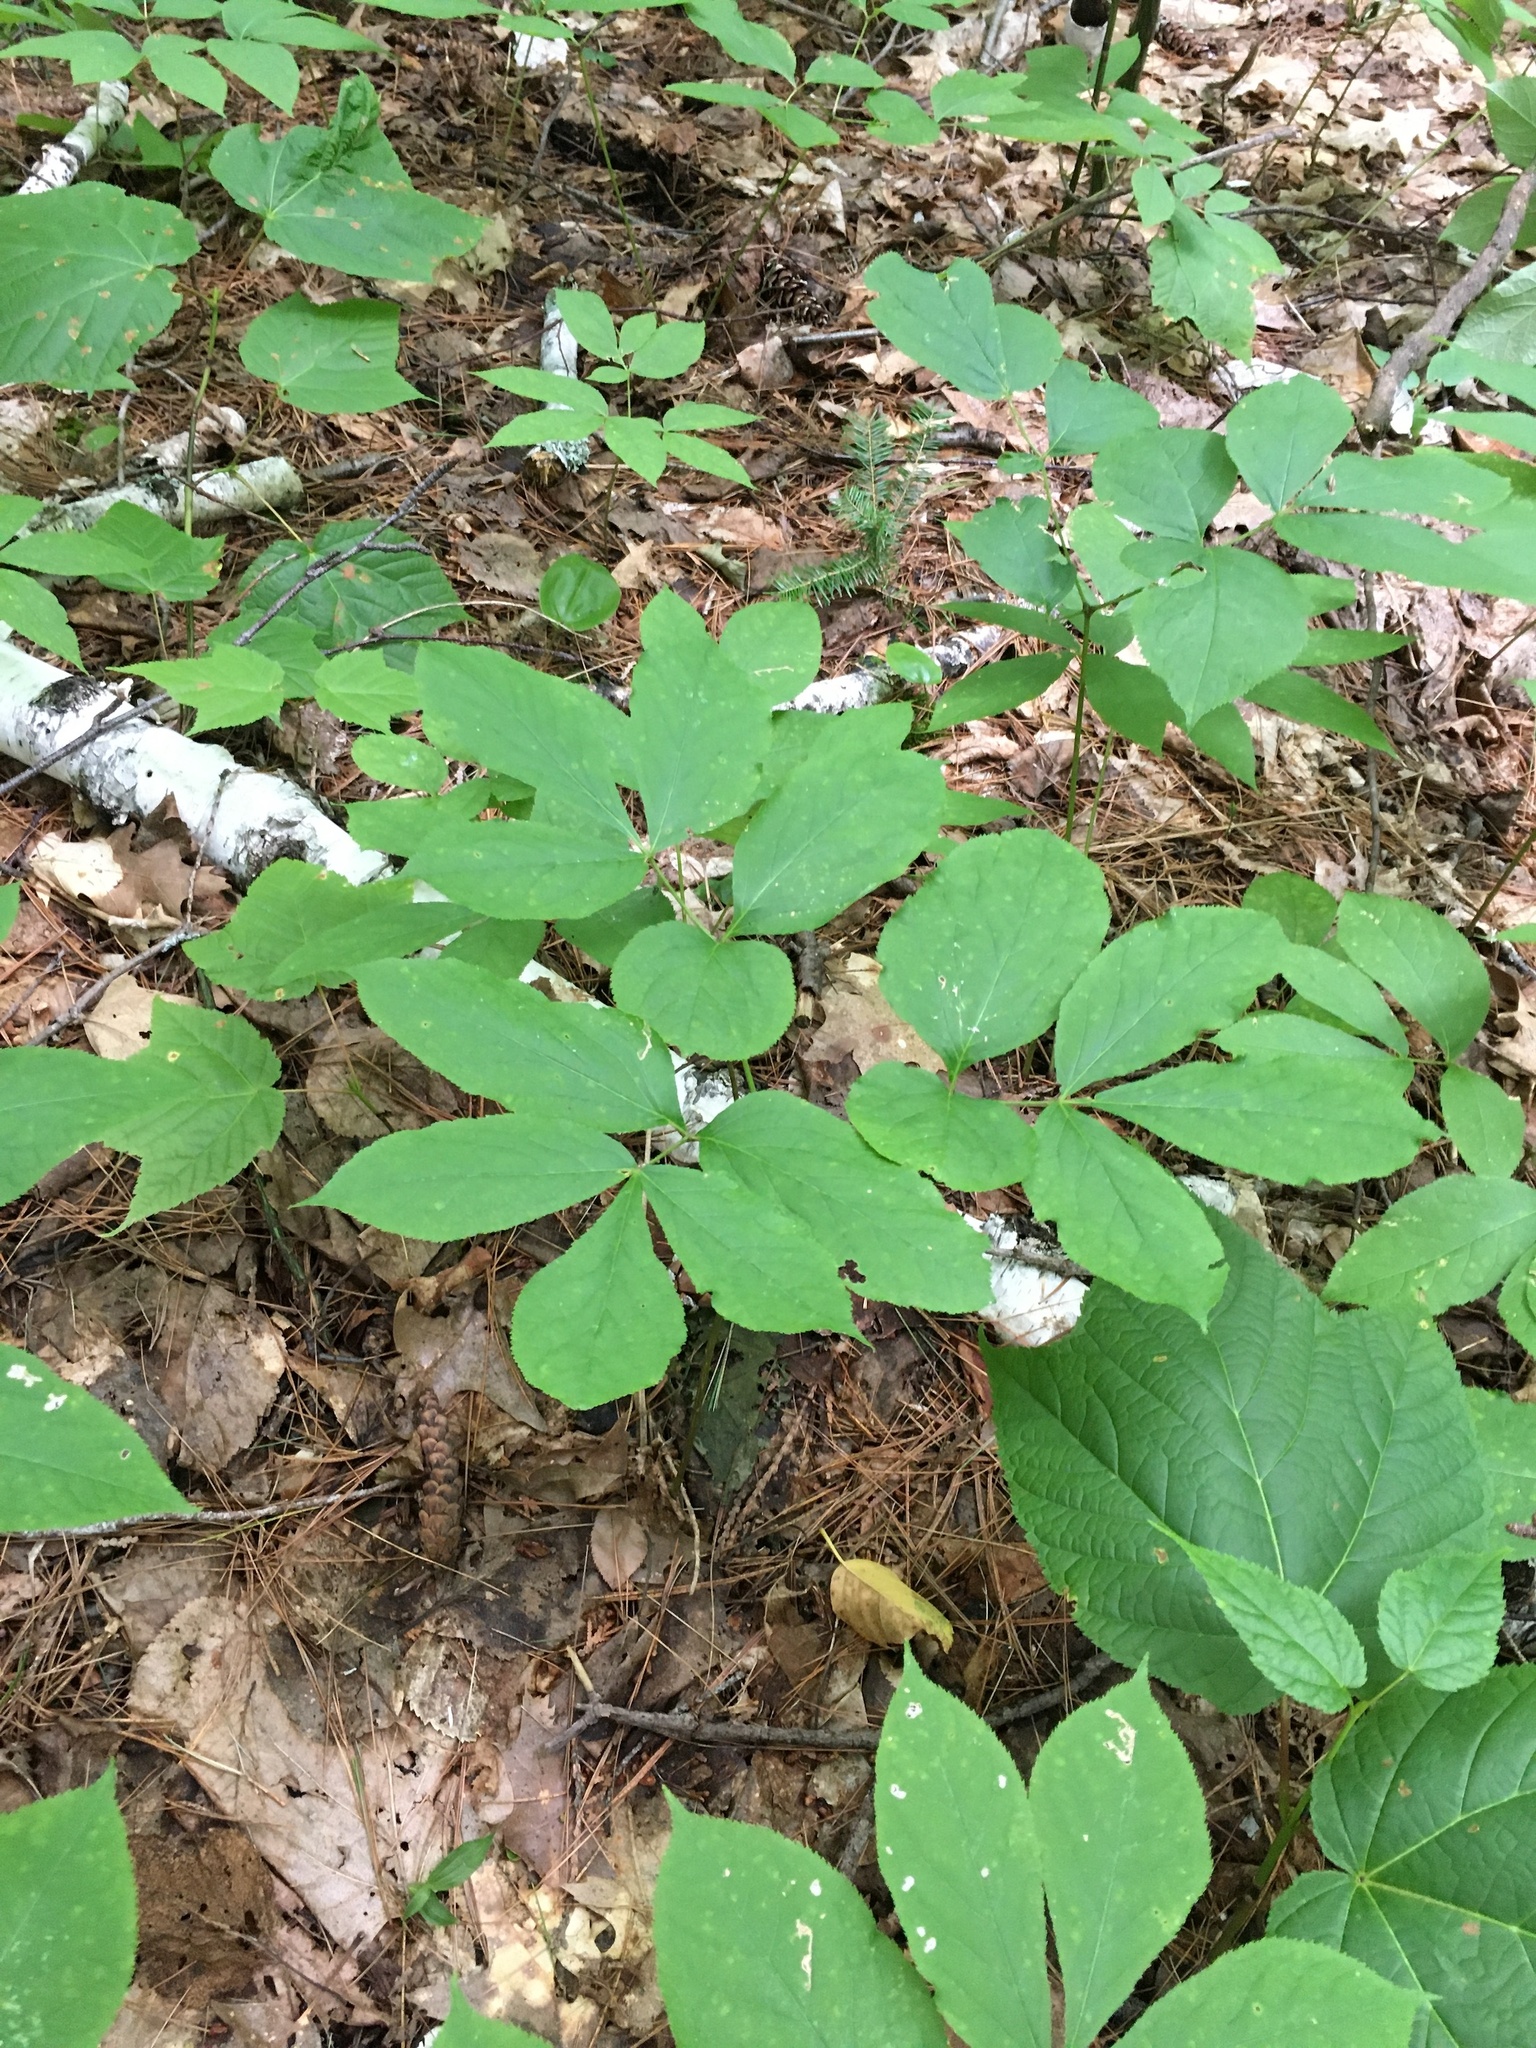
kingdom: Plantae
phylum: Tracheophyta
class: Magnoliopsida
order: Apiales
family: Araliaceae
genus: Aralia
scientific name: Aralia nudicaulis
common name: Wild sarsaparilla
